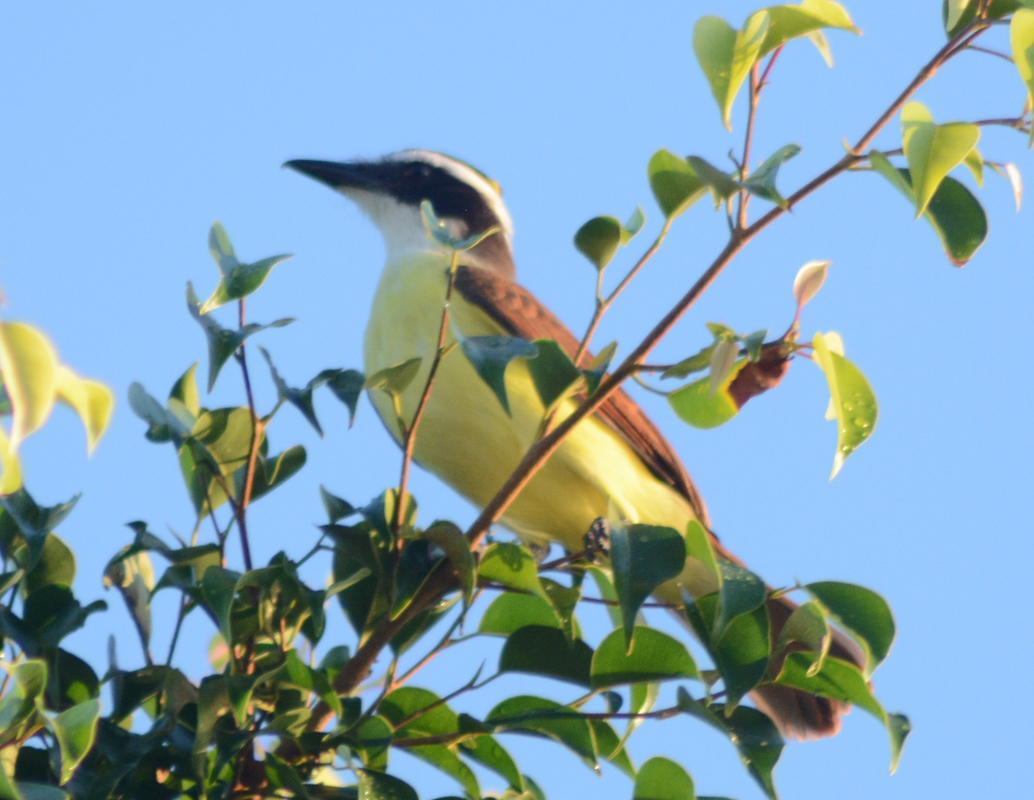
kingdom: Animalia
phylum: Chordata
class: Aves
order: Passeriformes
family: Tyrannidae
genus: Pitangus
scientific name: Pitangus sulphuratus
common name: Great kiskadee
